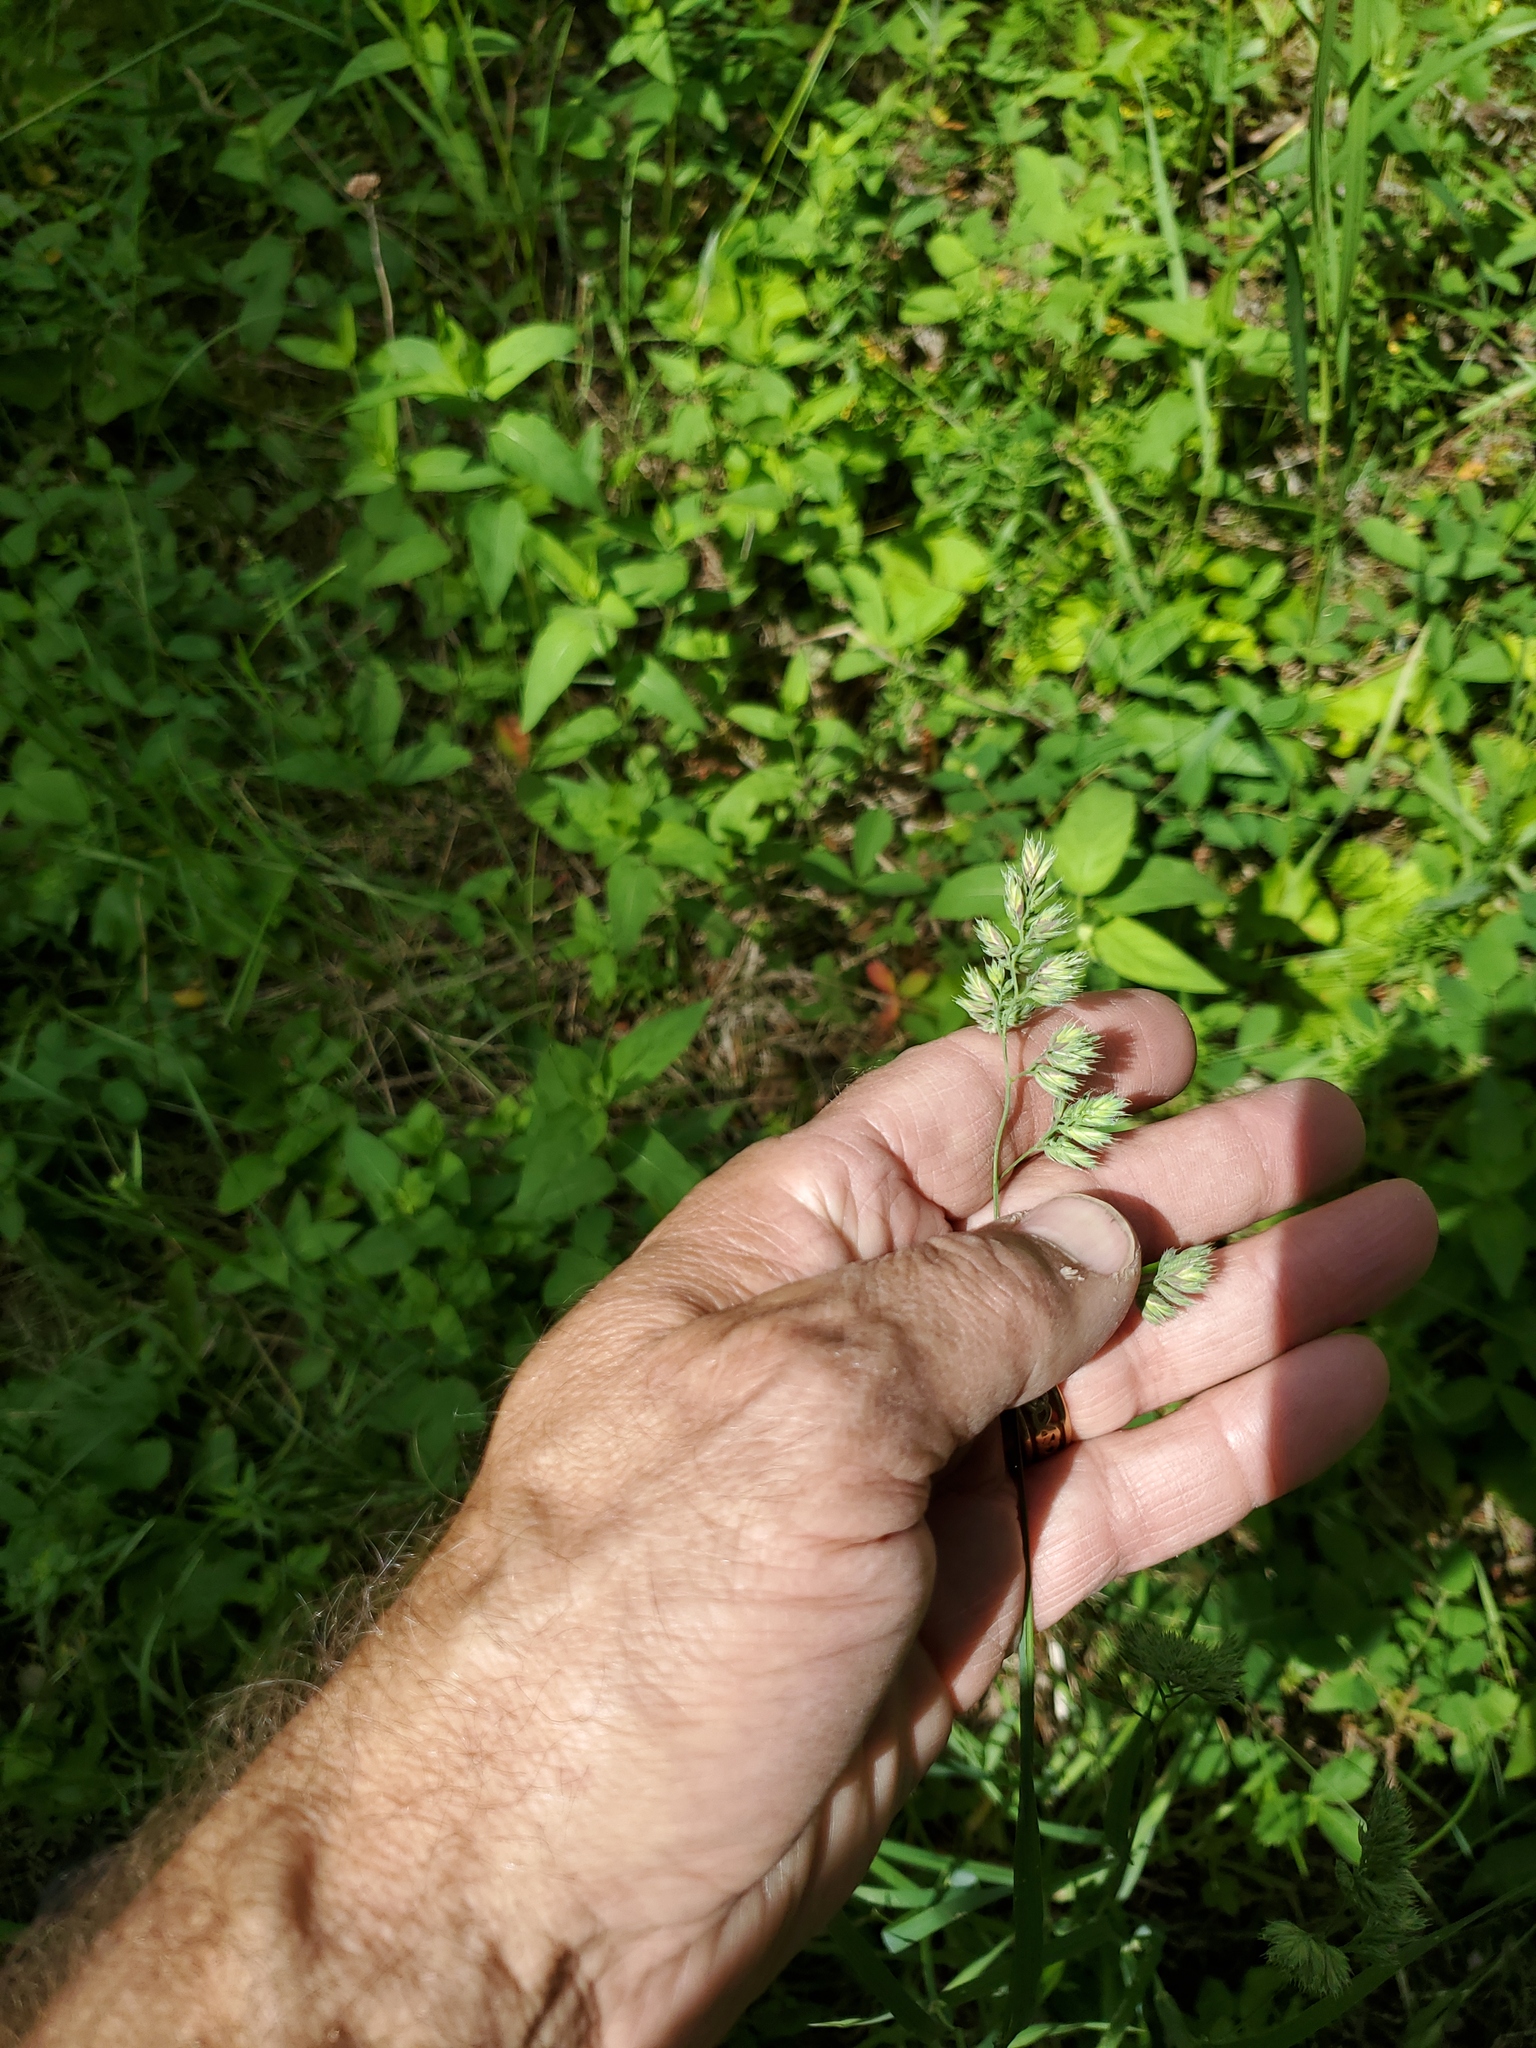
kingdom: Plantae
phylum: Tracheophyta
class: Liliopsida
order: Poales
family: Poaceae
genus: Dactylis
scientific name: Dactylis glomerata
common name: Orchardgrass
